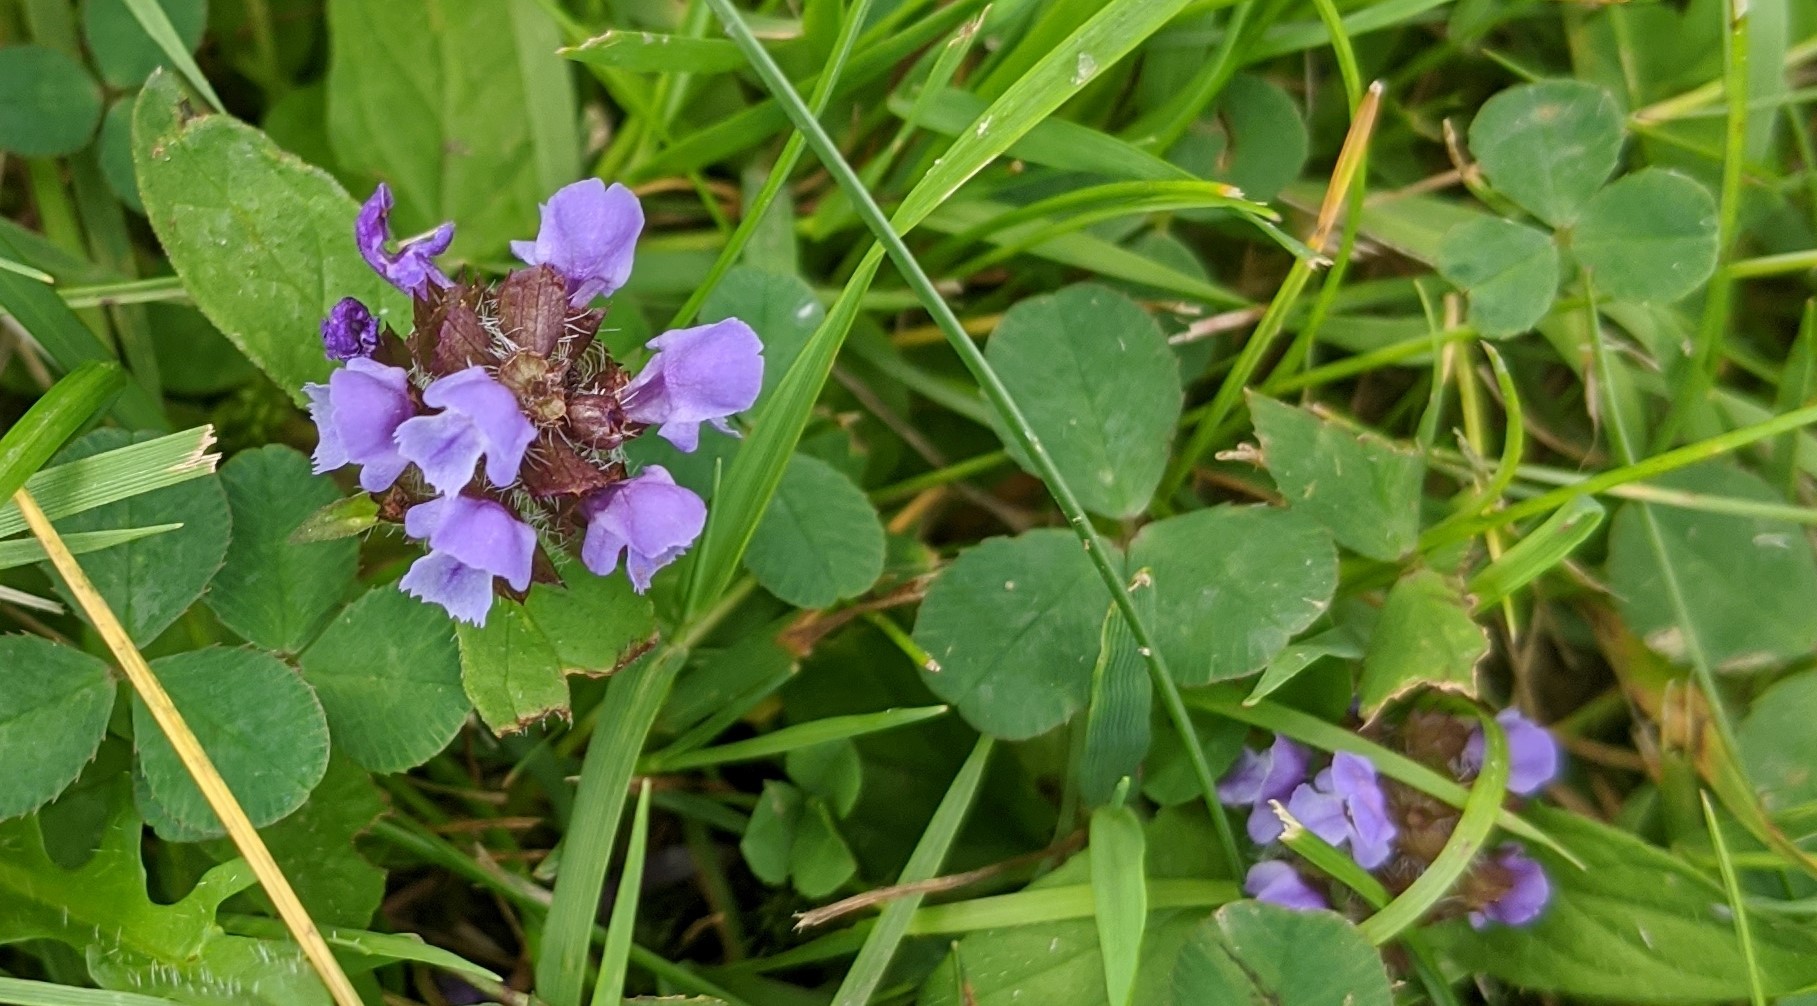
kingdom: Plantae
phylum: Tracheophyta
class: Magnoliopsida
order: Lamiales
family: Lamiaceae
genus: Prunella
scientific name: Prunella vulgaris
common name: Heal-all
